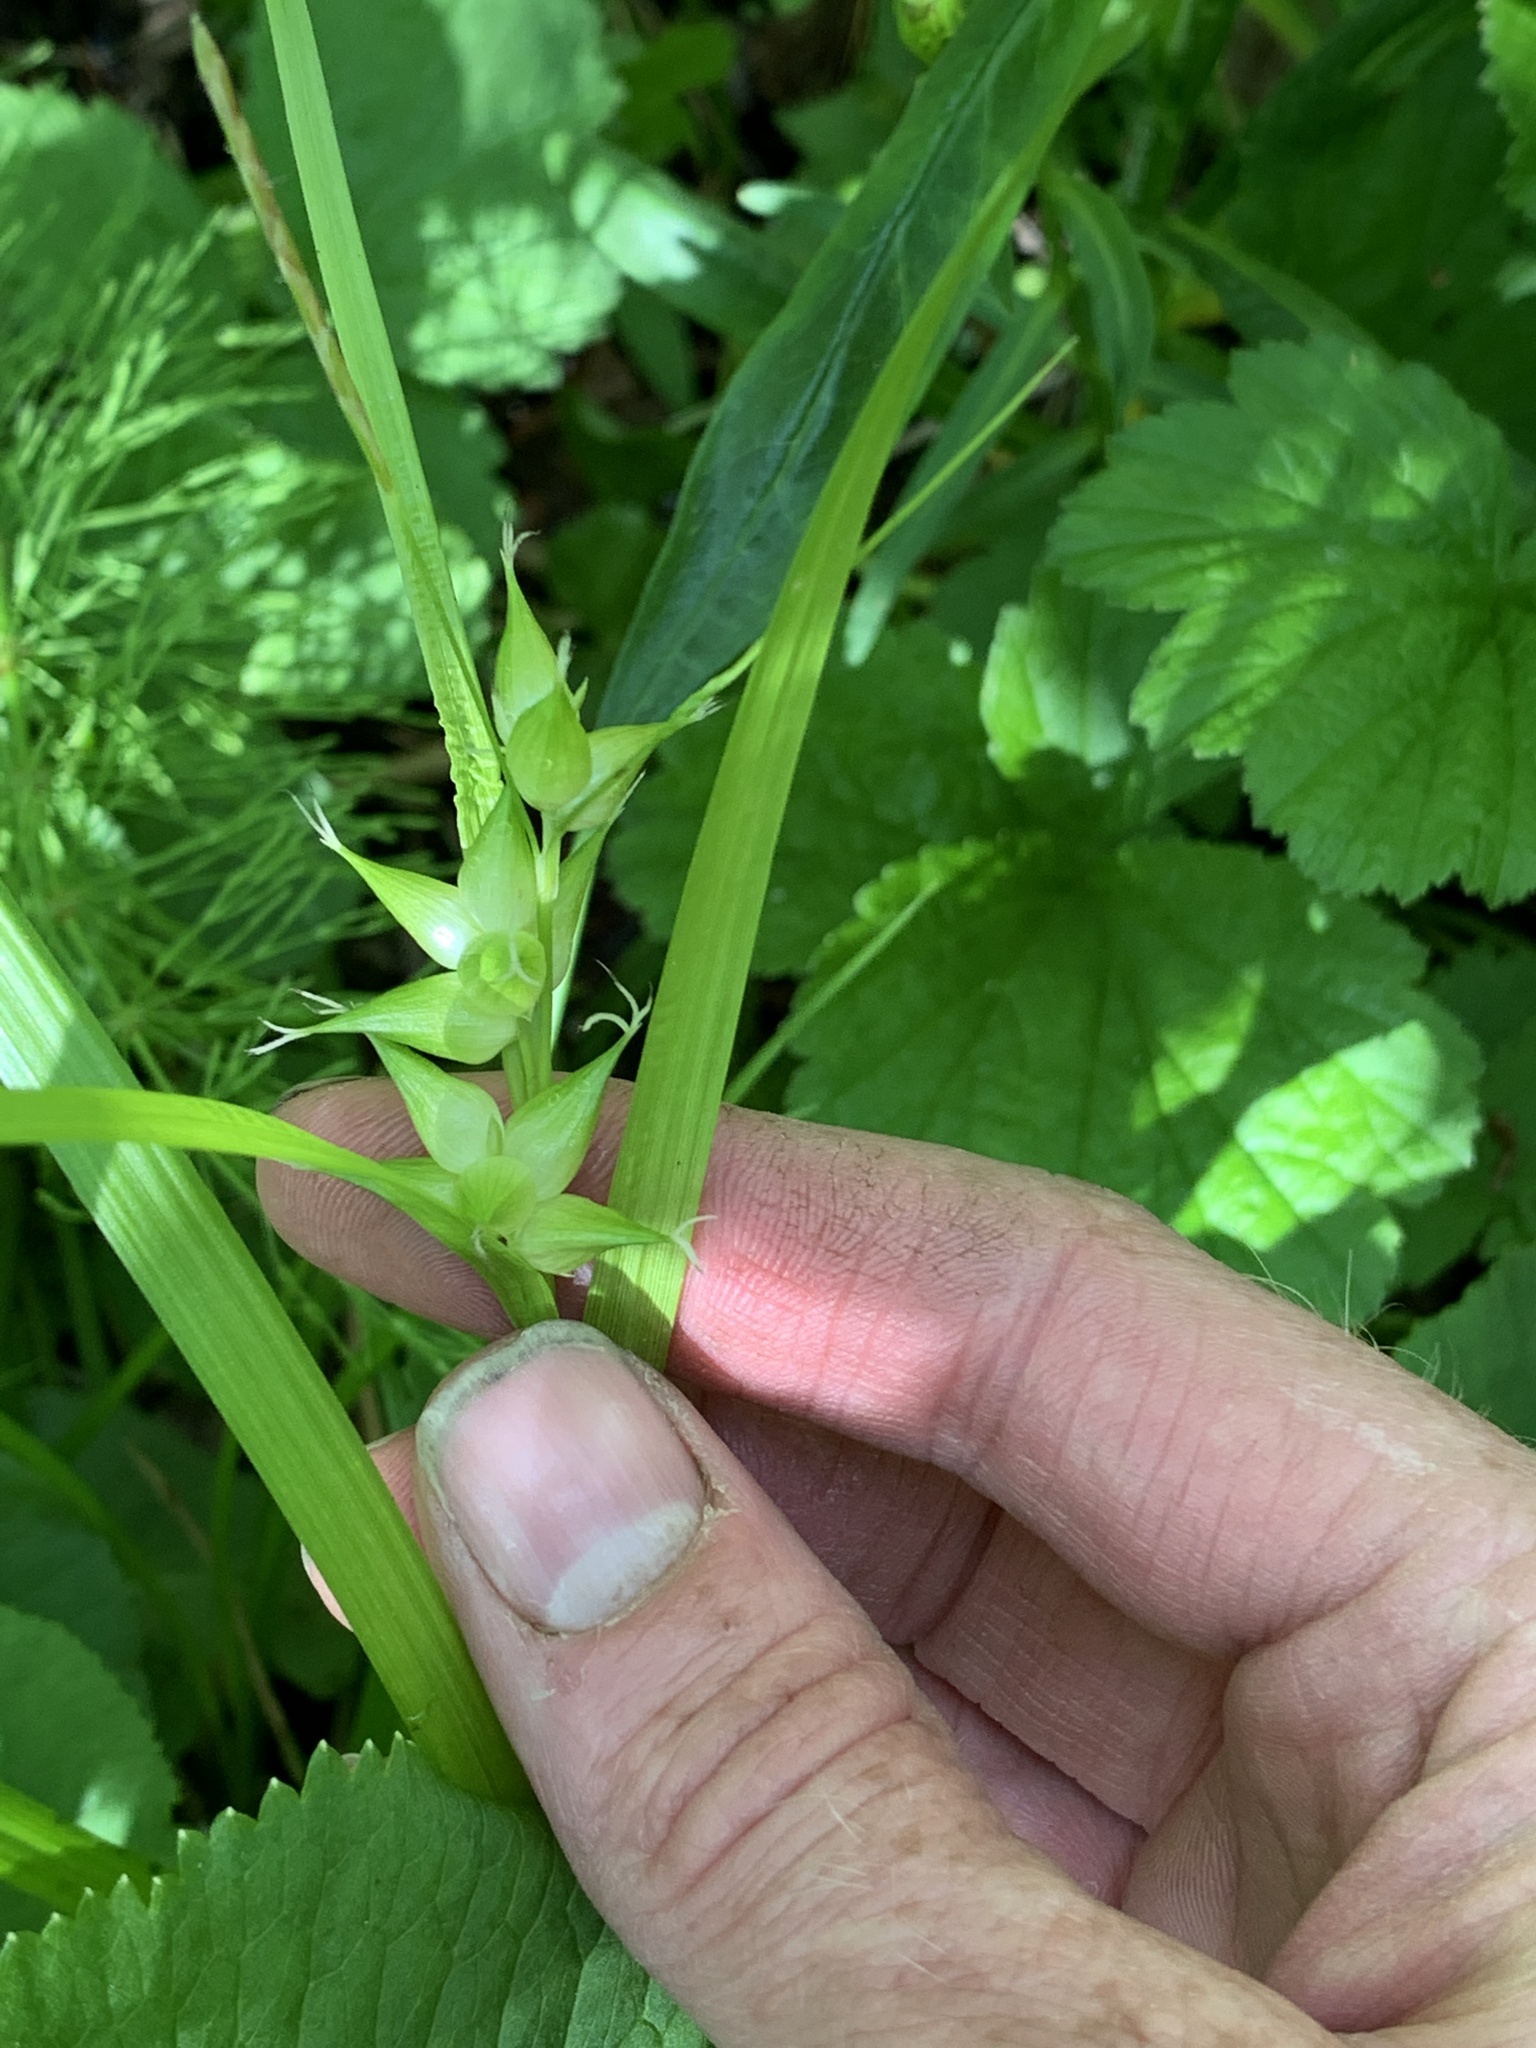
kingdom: Plantae
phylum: Tracheophyta
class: Liliopsida
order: Poales
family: Cyperaceae
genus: Carex
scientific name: Carex intumescens
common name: Greater bladder sedge
